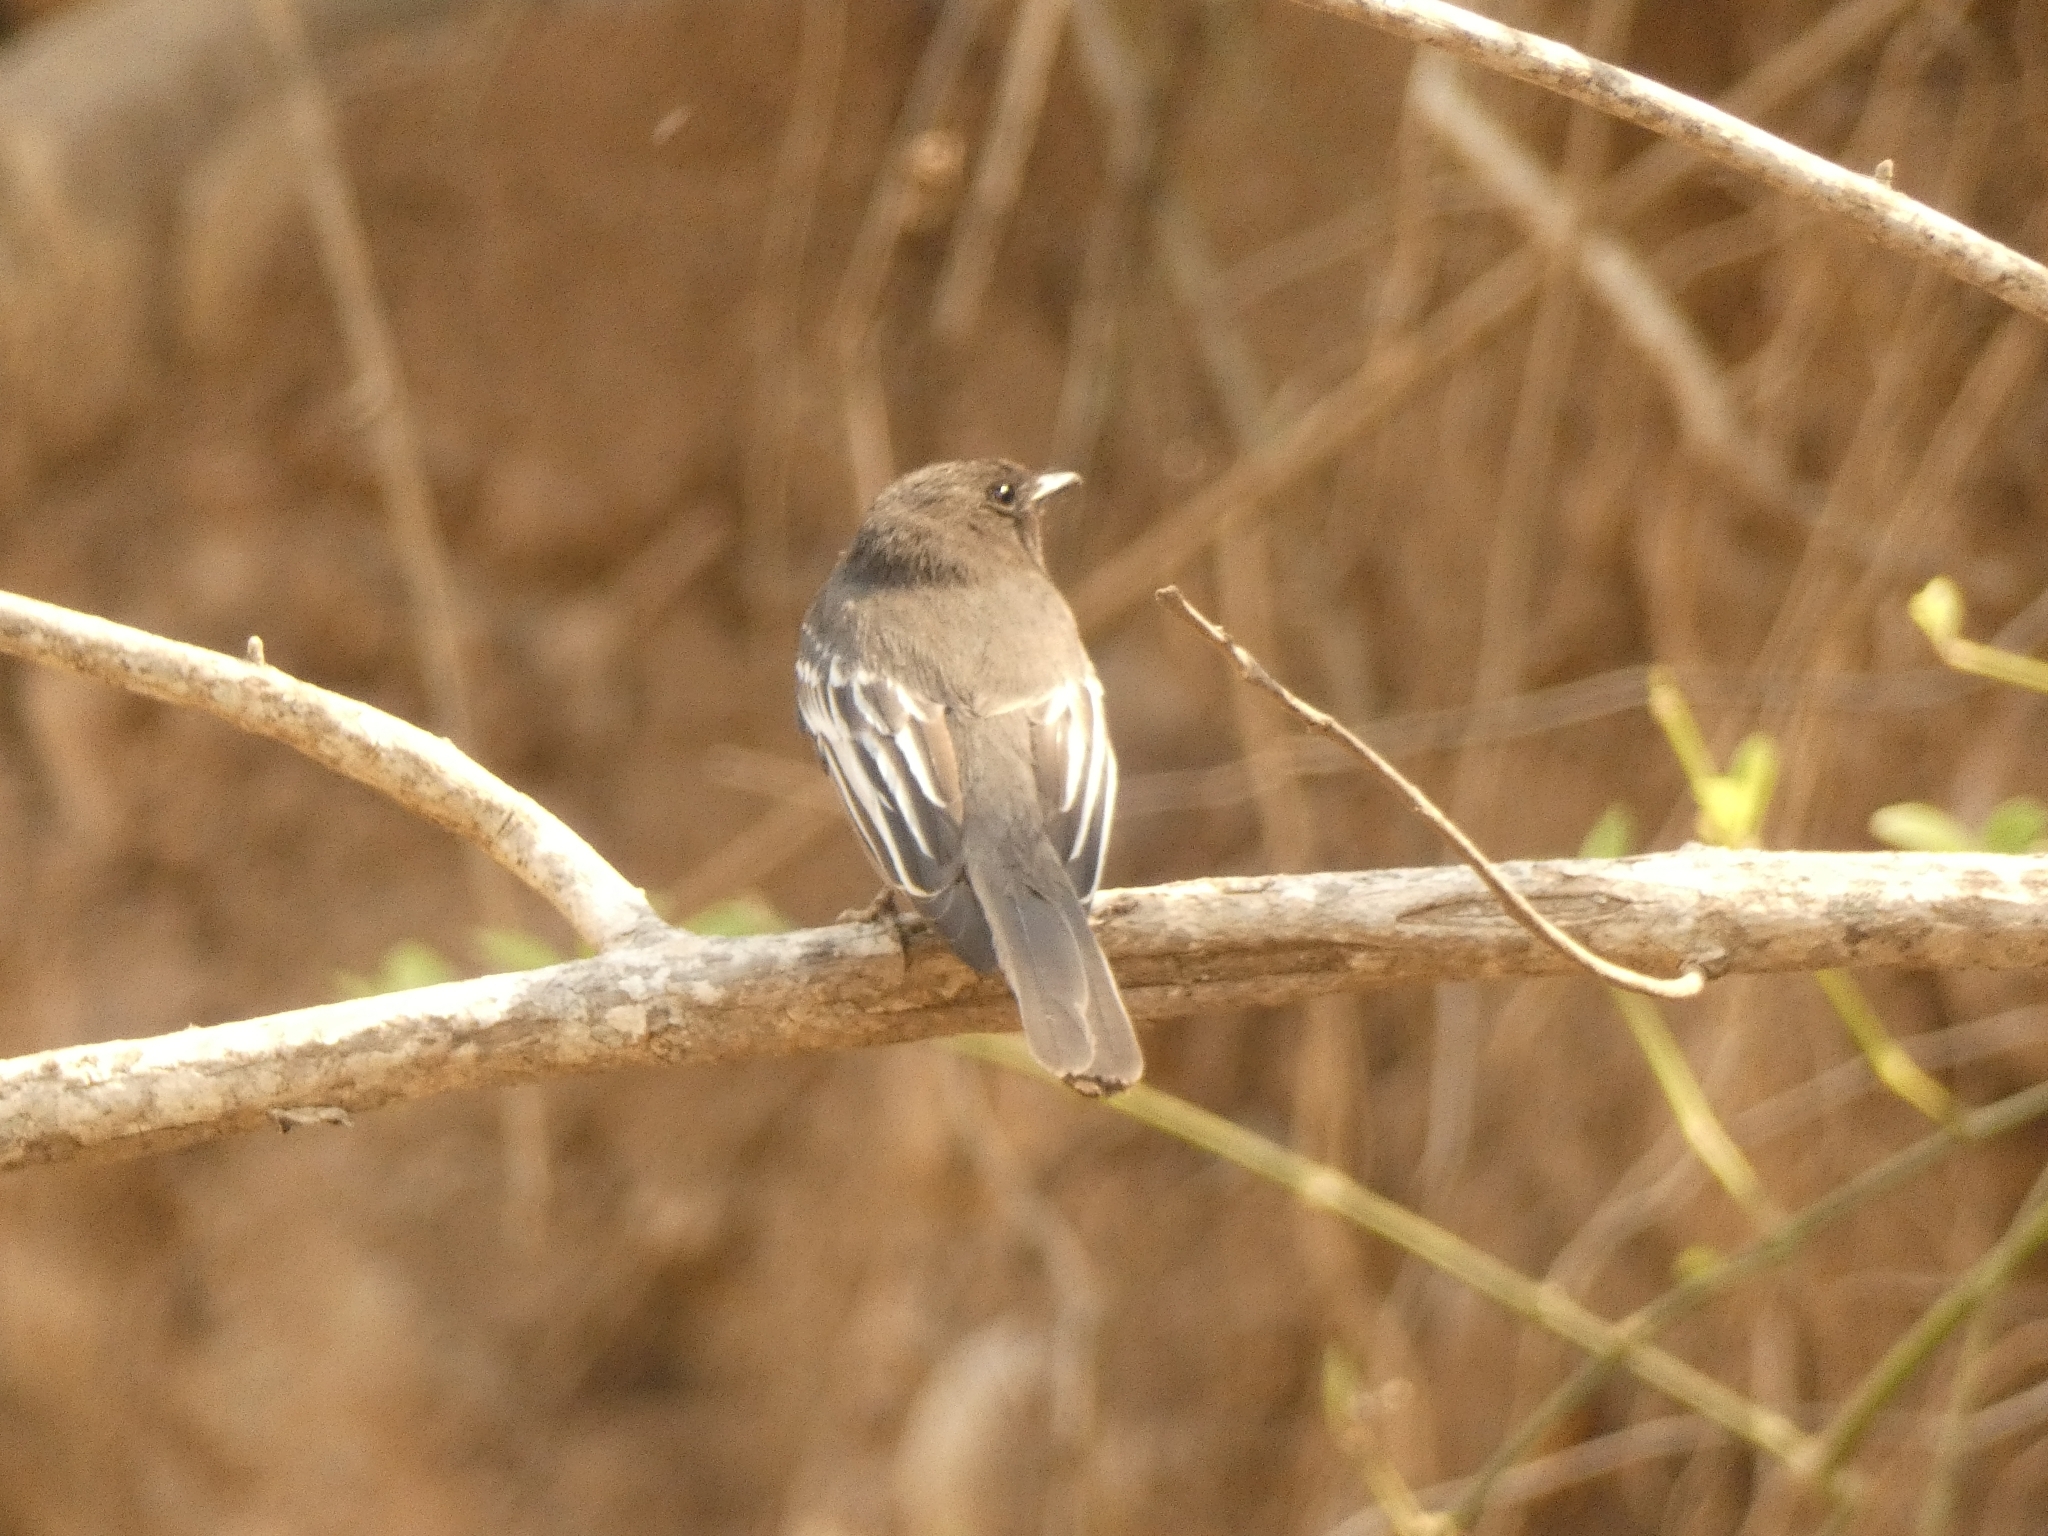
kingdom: Animalia
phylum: Chordata
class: Aves
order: Passeriformes
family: Tyrannidae
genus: Sayornis
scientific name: Sayornis nigricans
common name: Black phoebe
